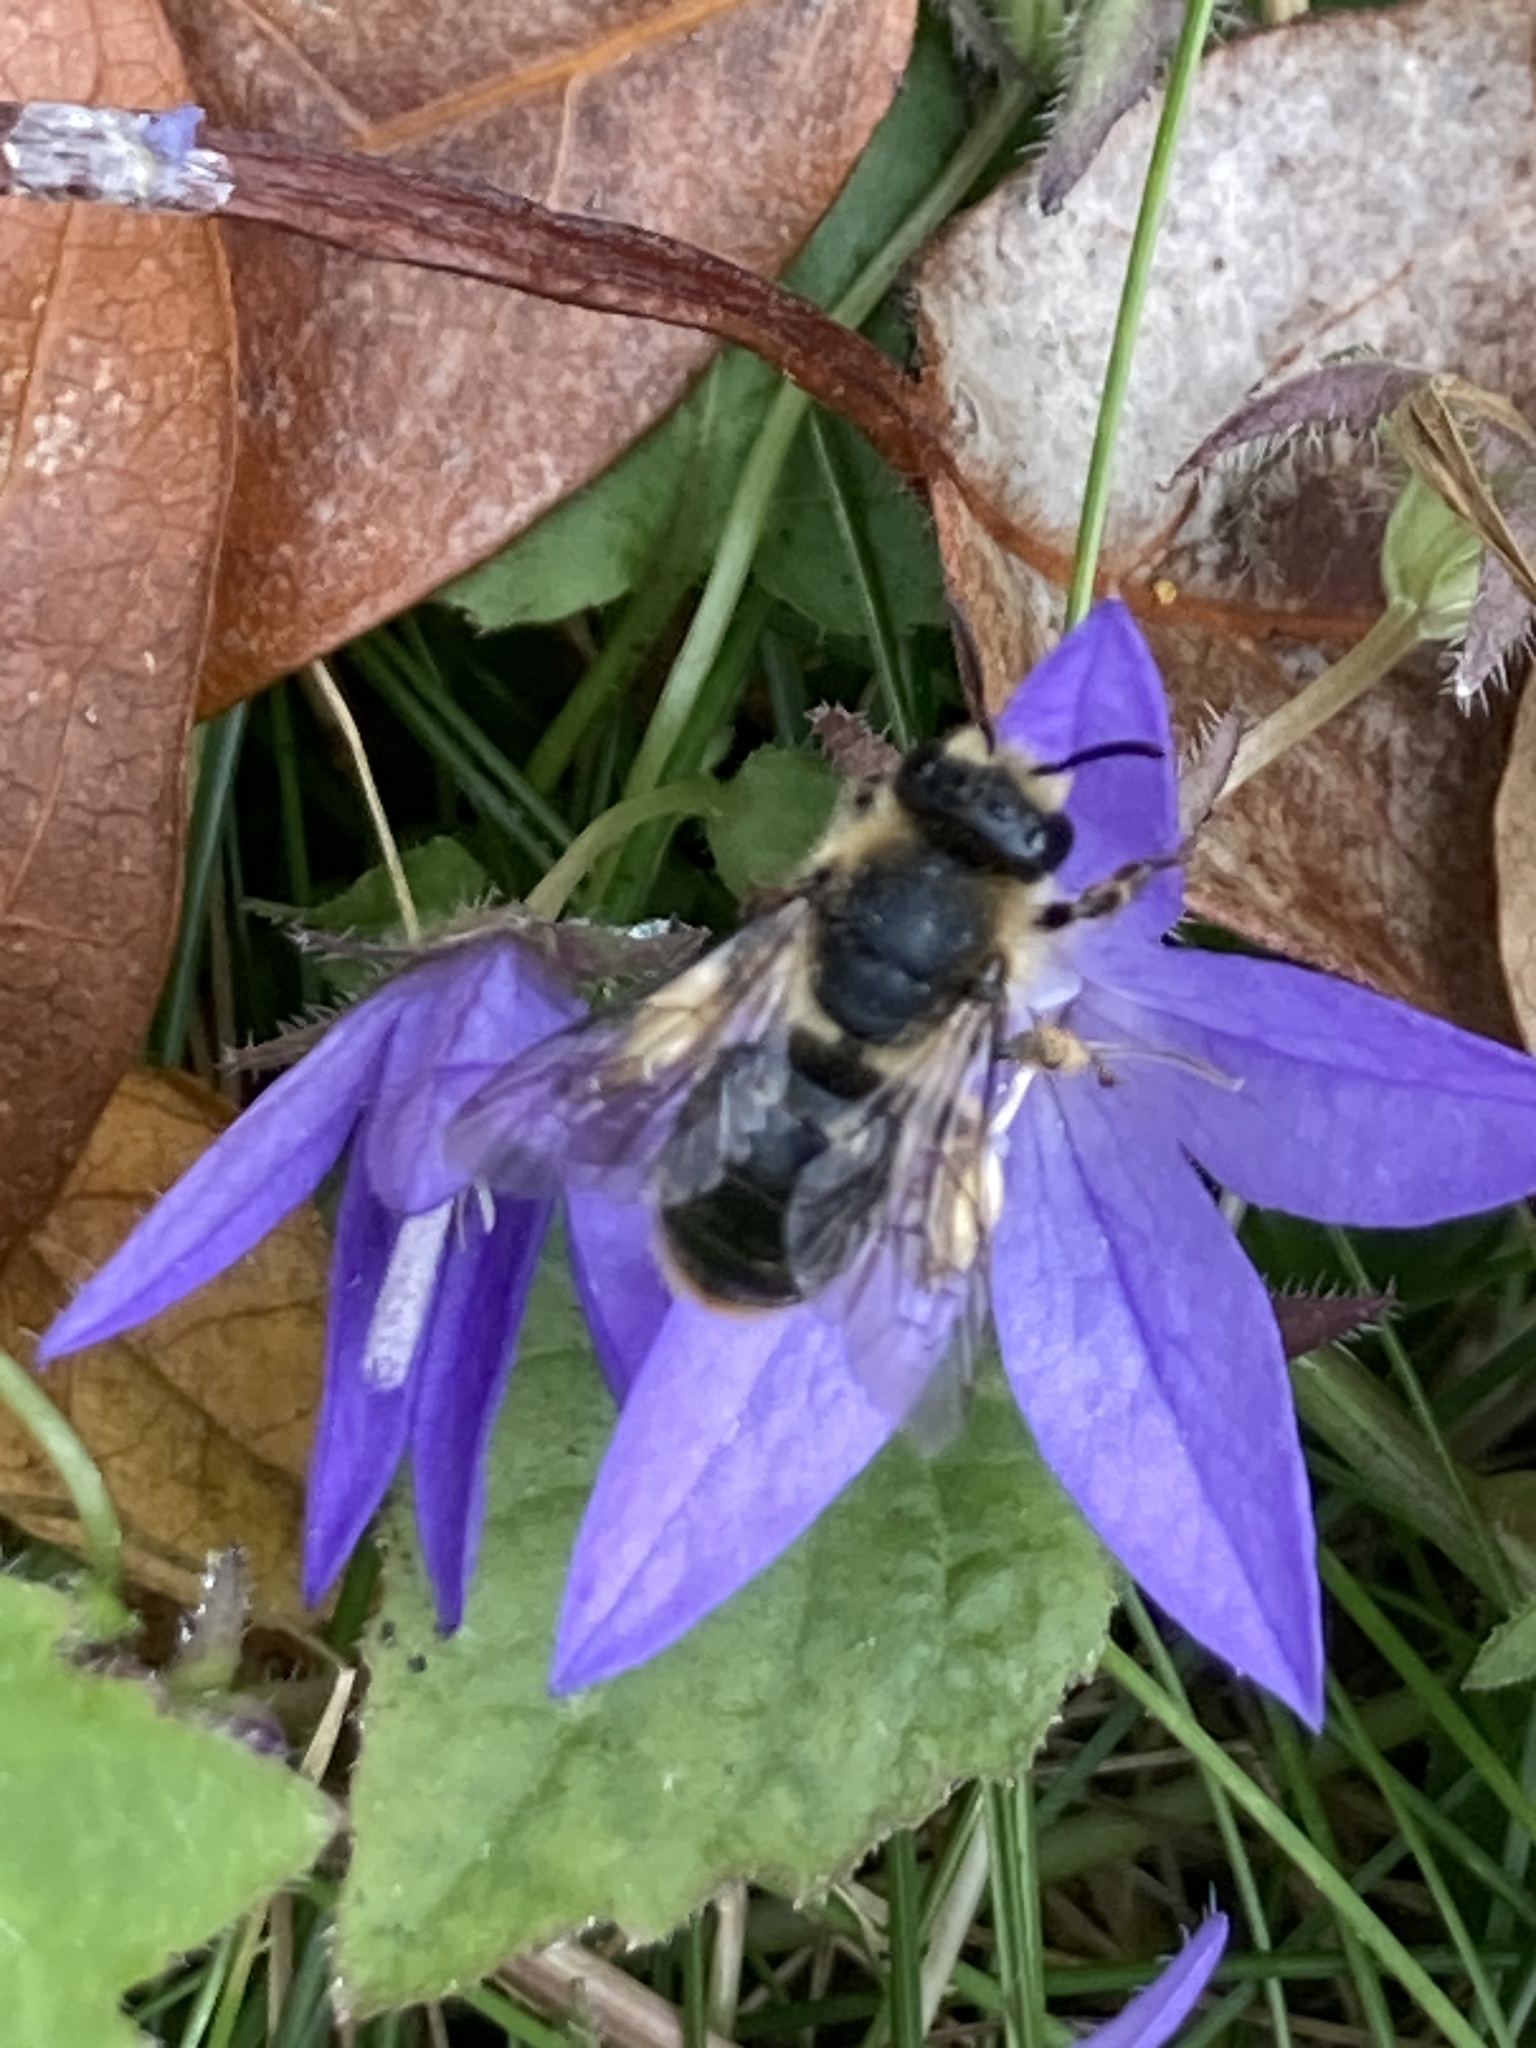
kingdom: Animalia
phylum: Arthropoda
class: Insecta
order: Hymenoptera
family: Melittidae
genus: Melitta
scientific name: Melitta haemorrhoidalis
